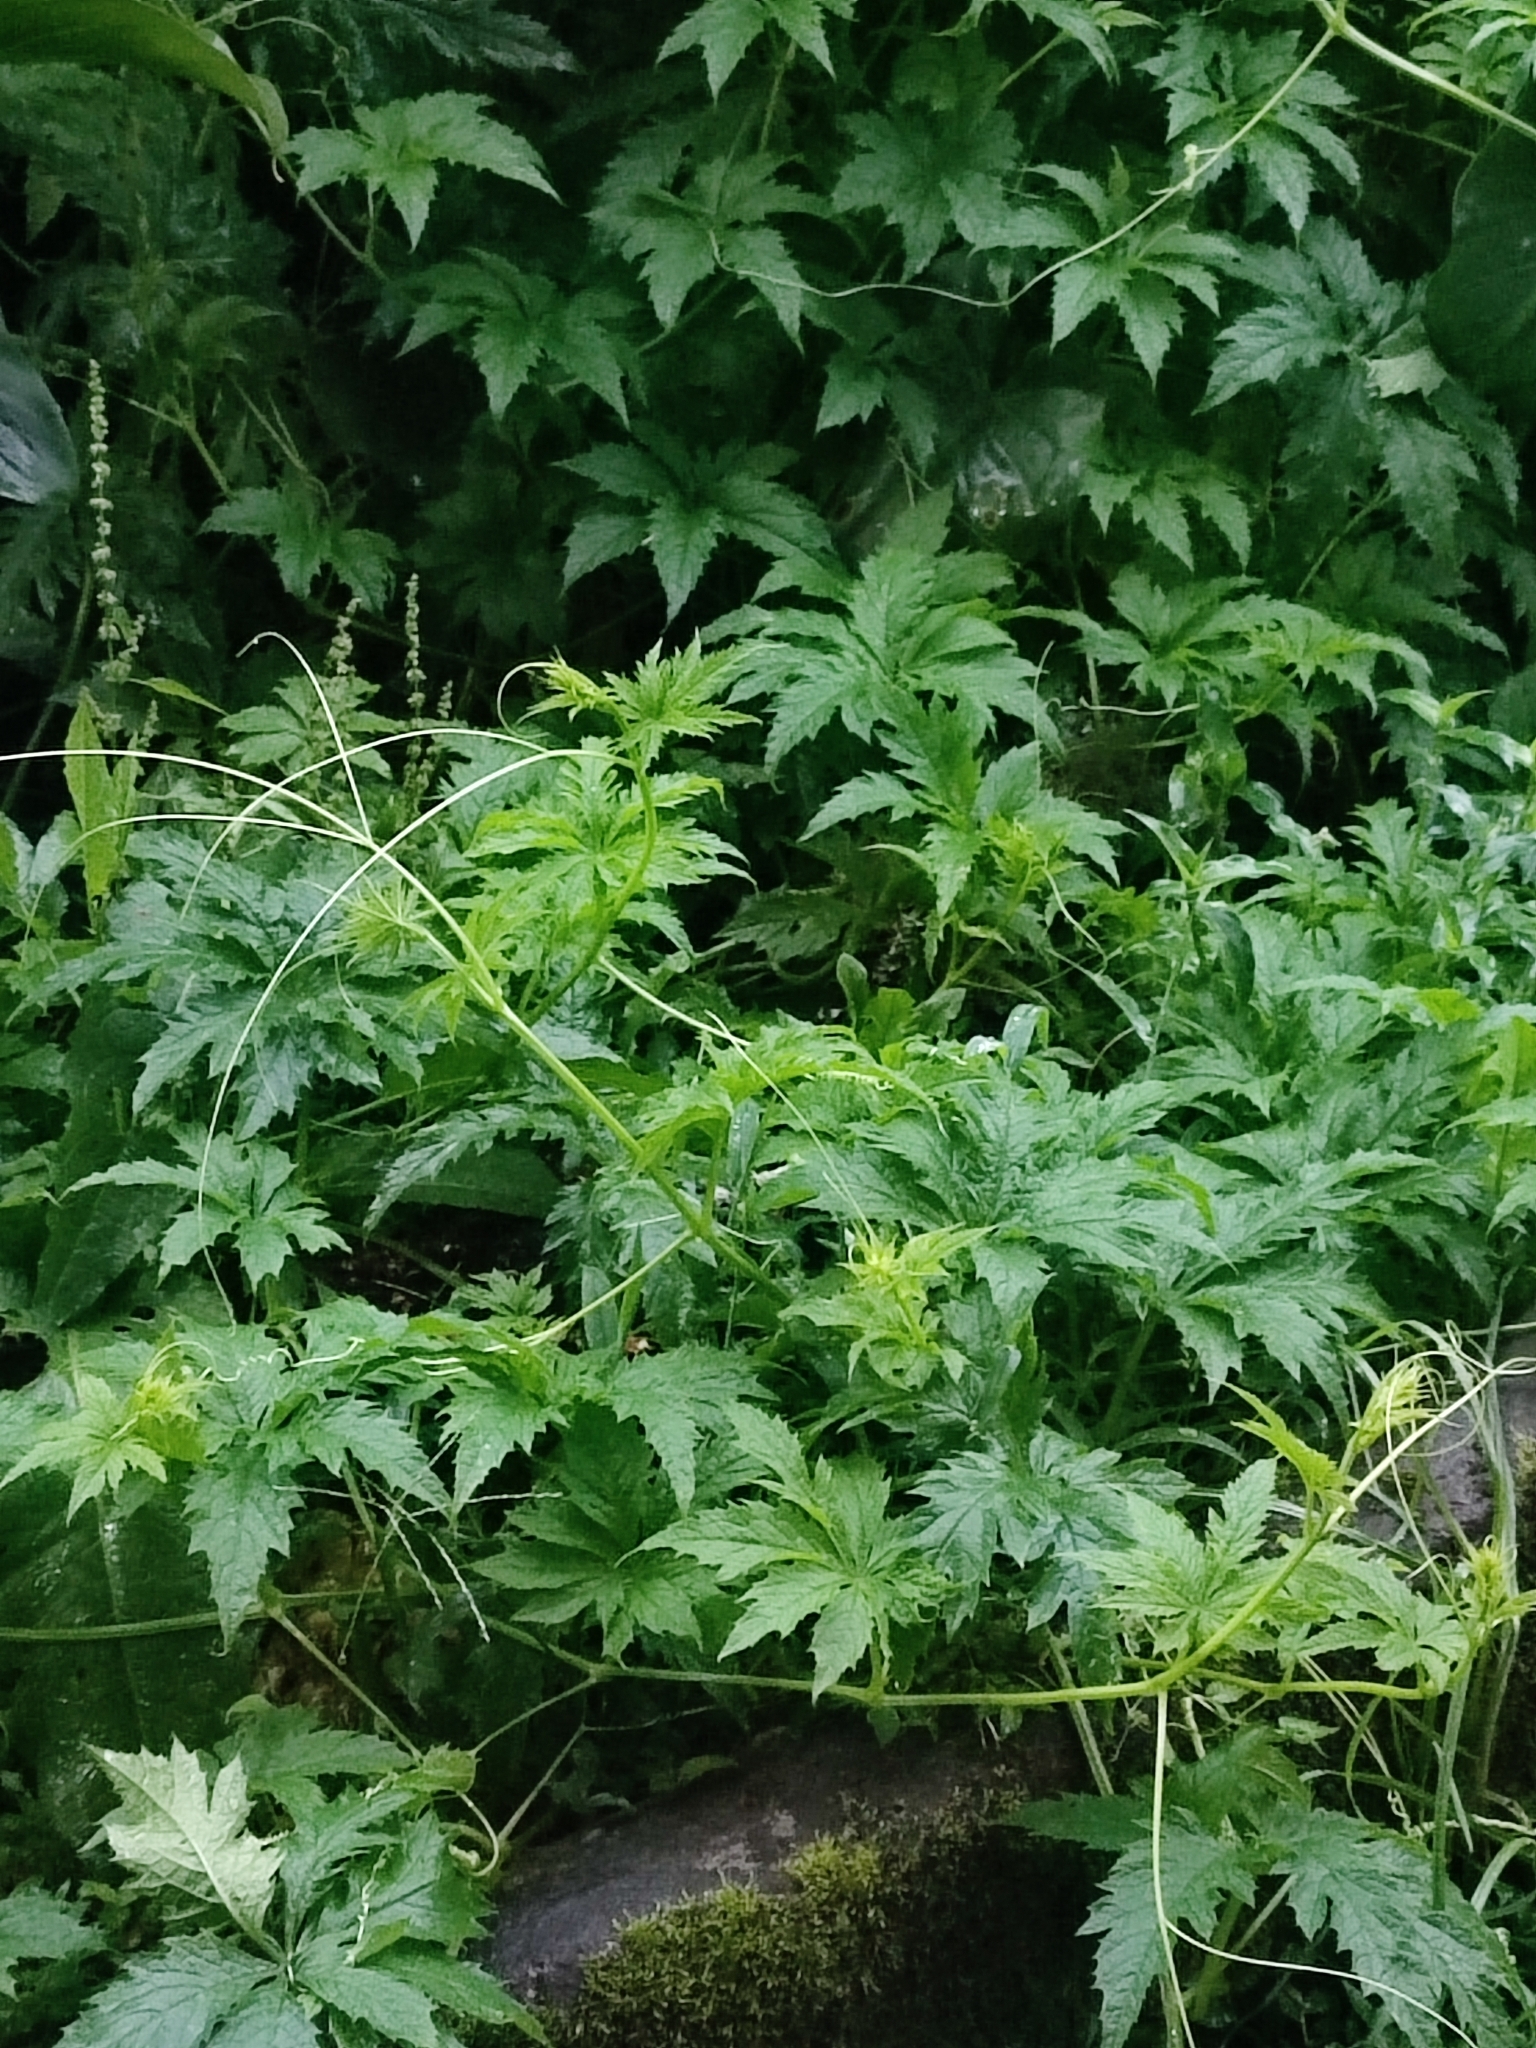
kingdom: Plantae
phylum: Tracheophyta
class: Magnoliopsida
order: Cucurbitales
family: Cucurbitaceae
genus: Cyclanthera
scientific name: Cyclanthera pedata
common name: Slipper goard
